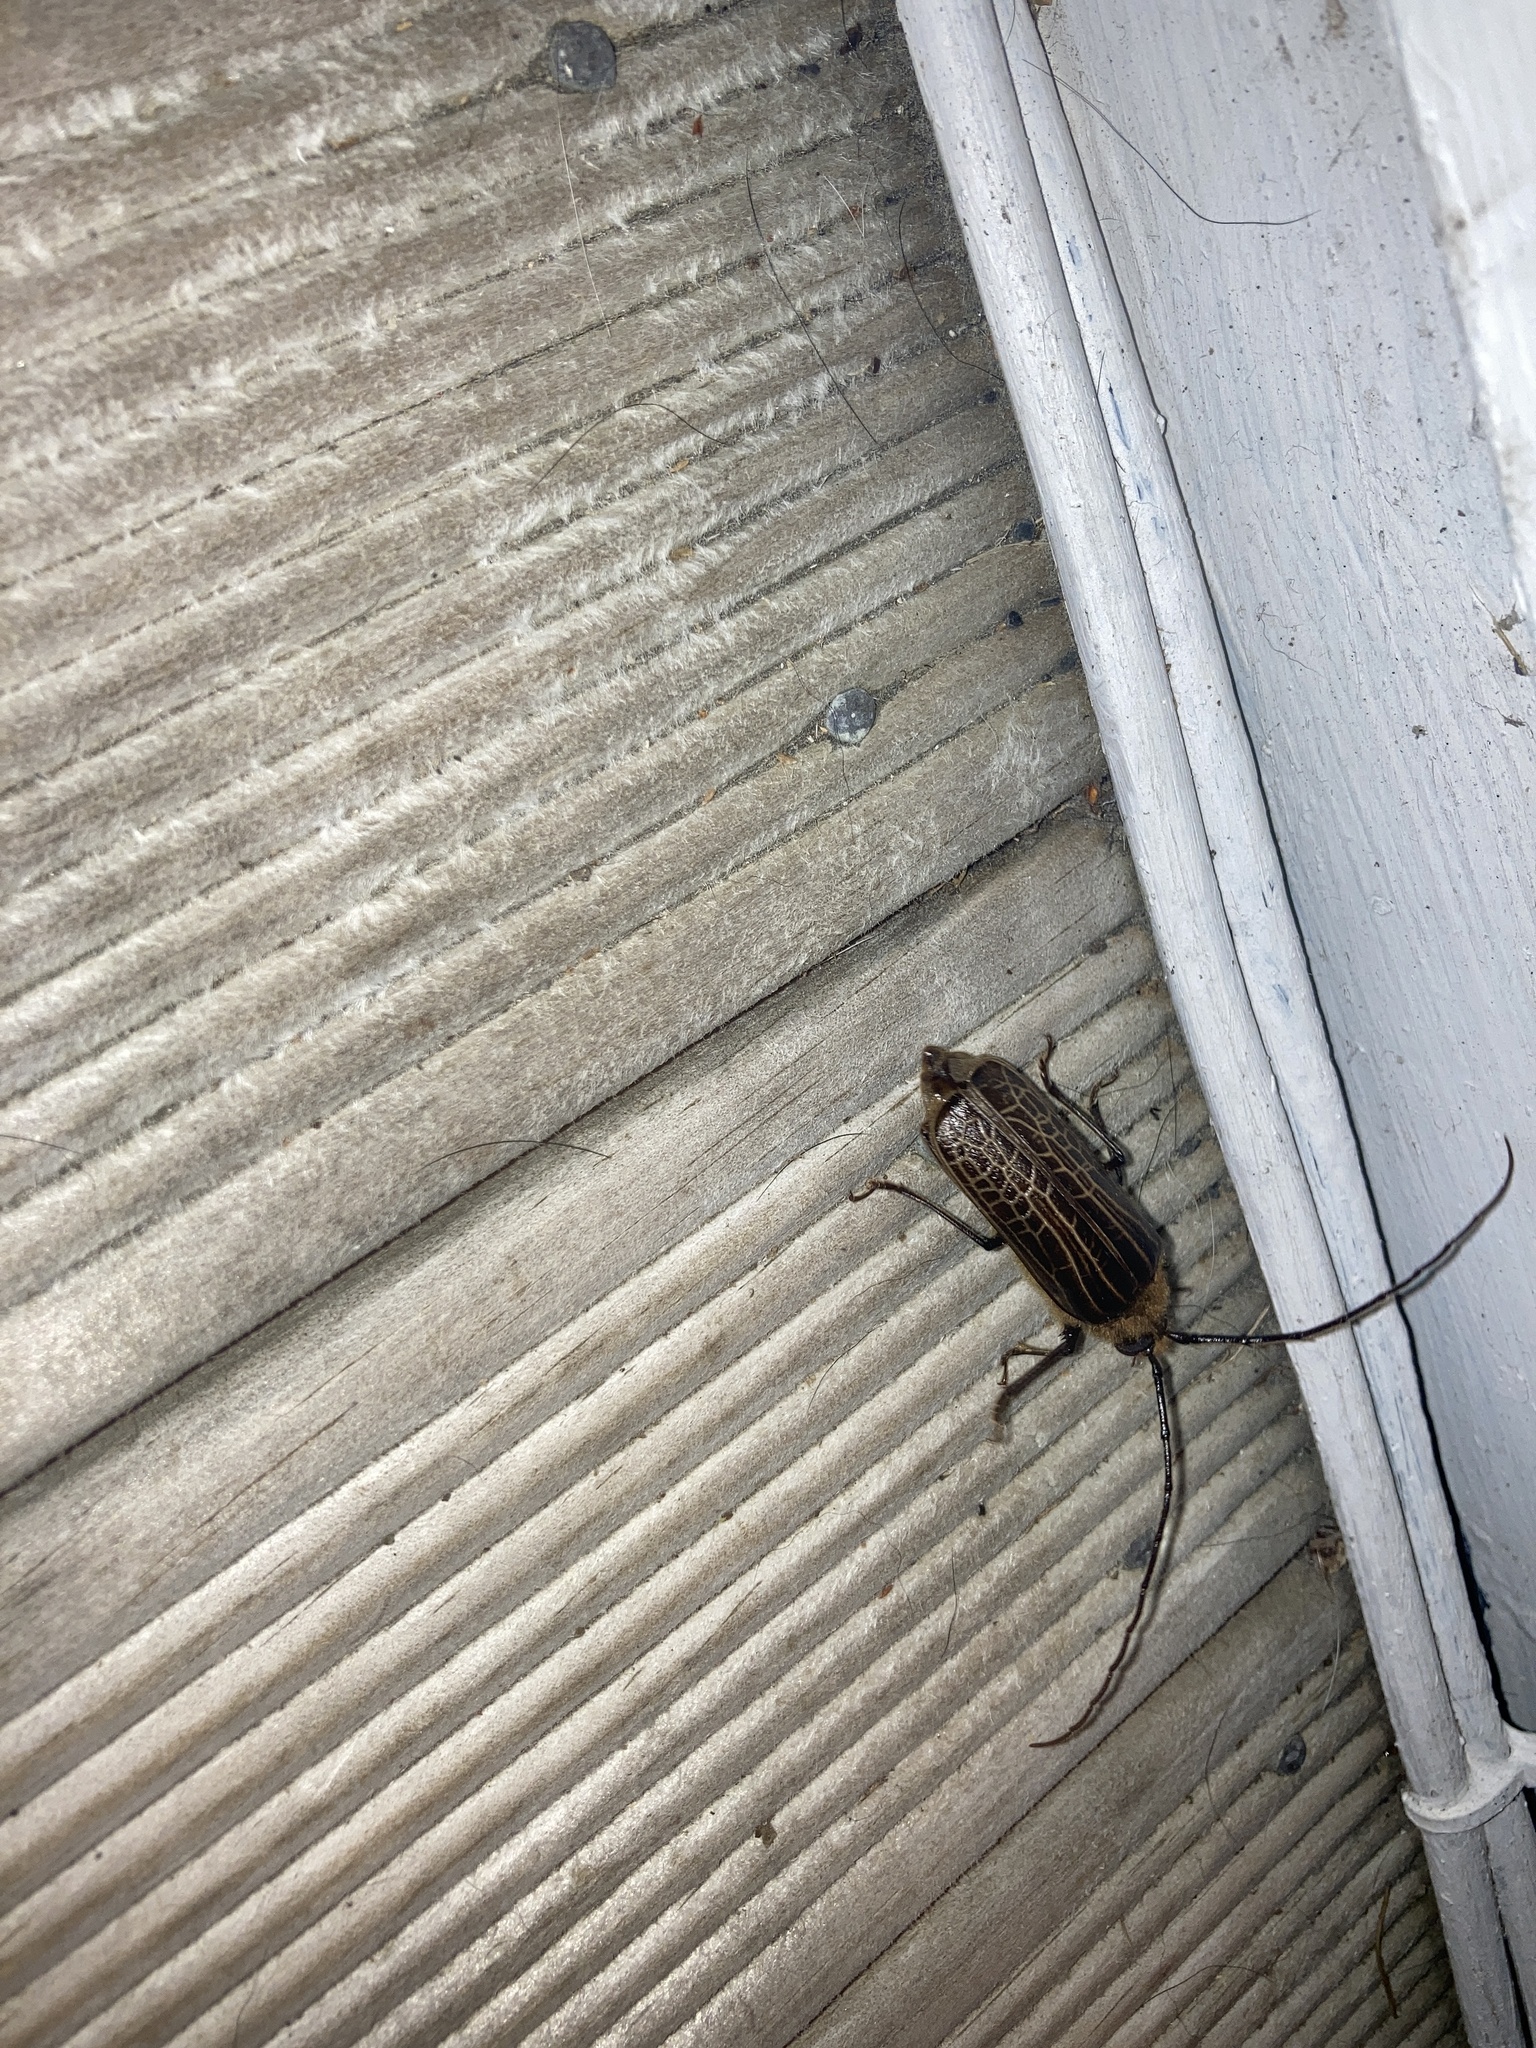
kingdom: Animalia
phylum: Arthropoda
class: Insecta
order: Coleoptera
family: Cerambycidae
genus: Prionoplus
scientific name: Prionoplus reticularis
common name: Huhu beetle
